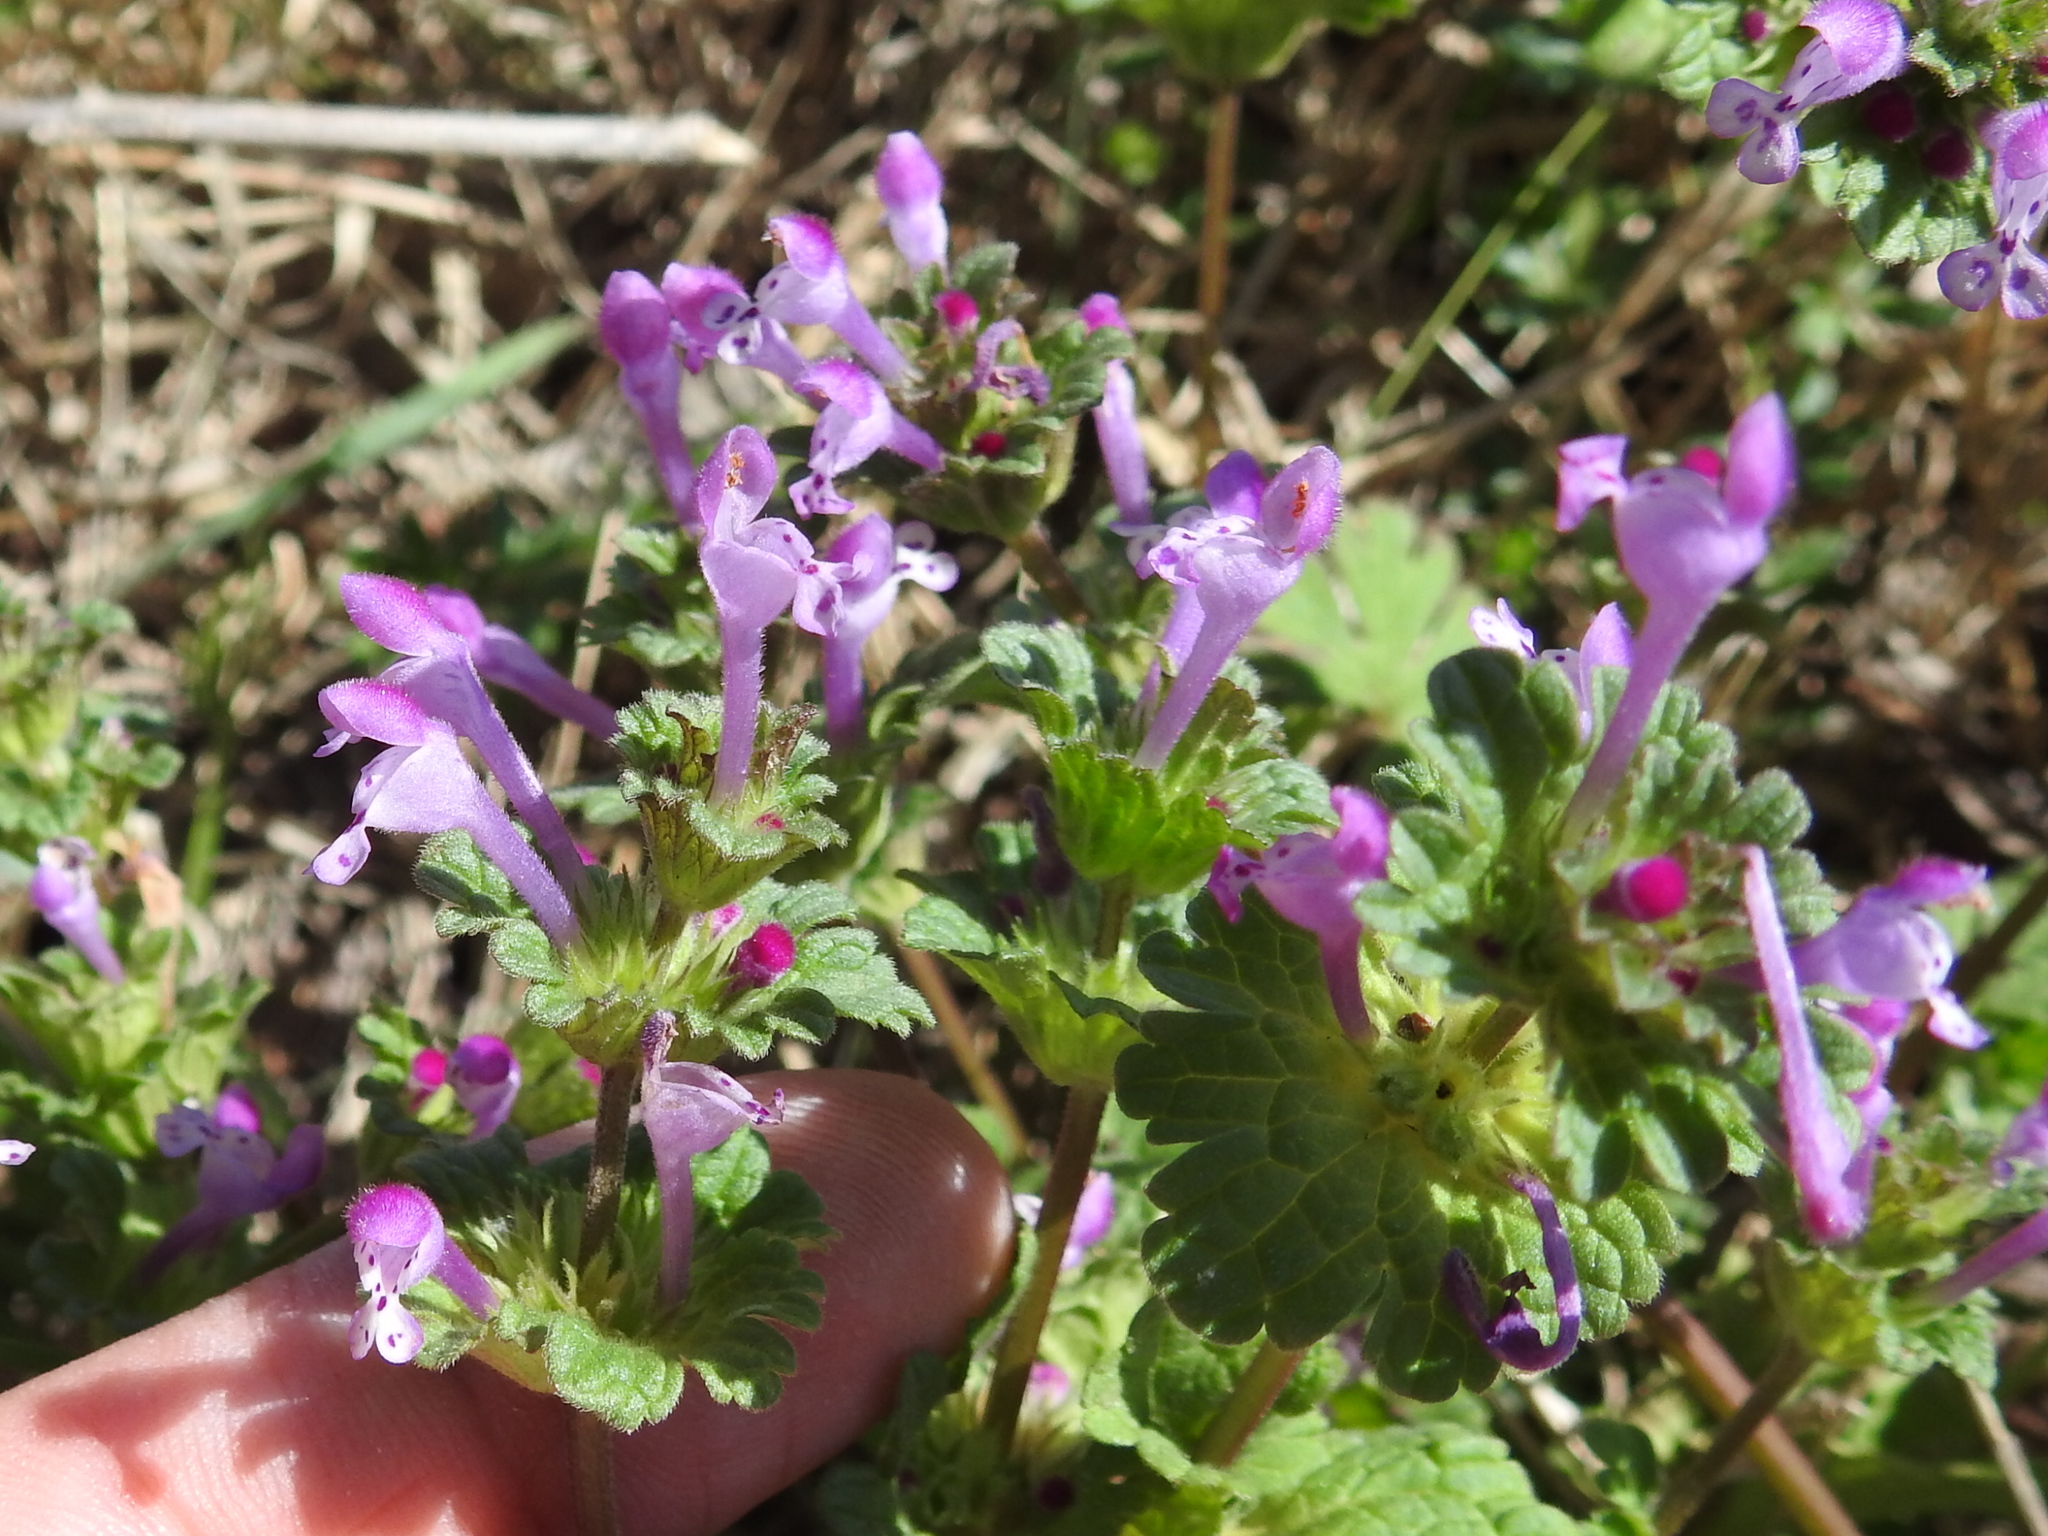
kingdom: Plantae
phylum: Tracheophyta
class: Magnoliopsida
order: Lamiales
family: Lamiaceae
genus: Lamium
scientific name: Lamium amplexicaule
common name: Henbit dead-nettle
